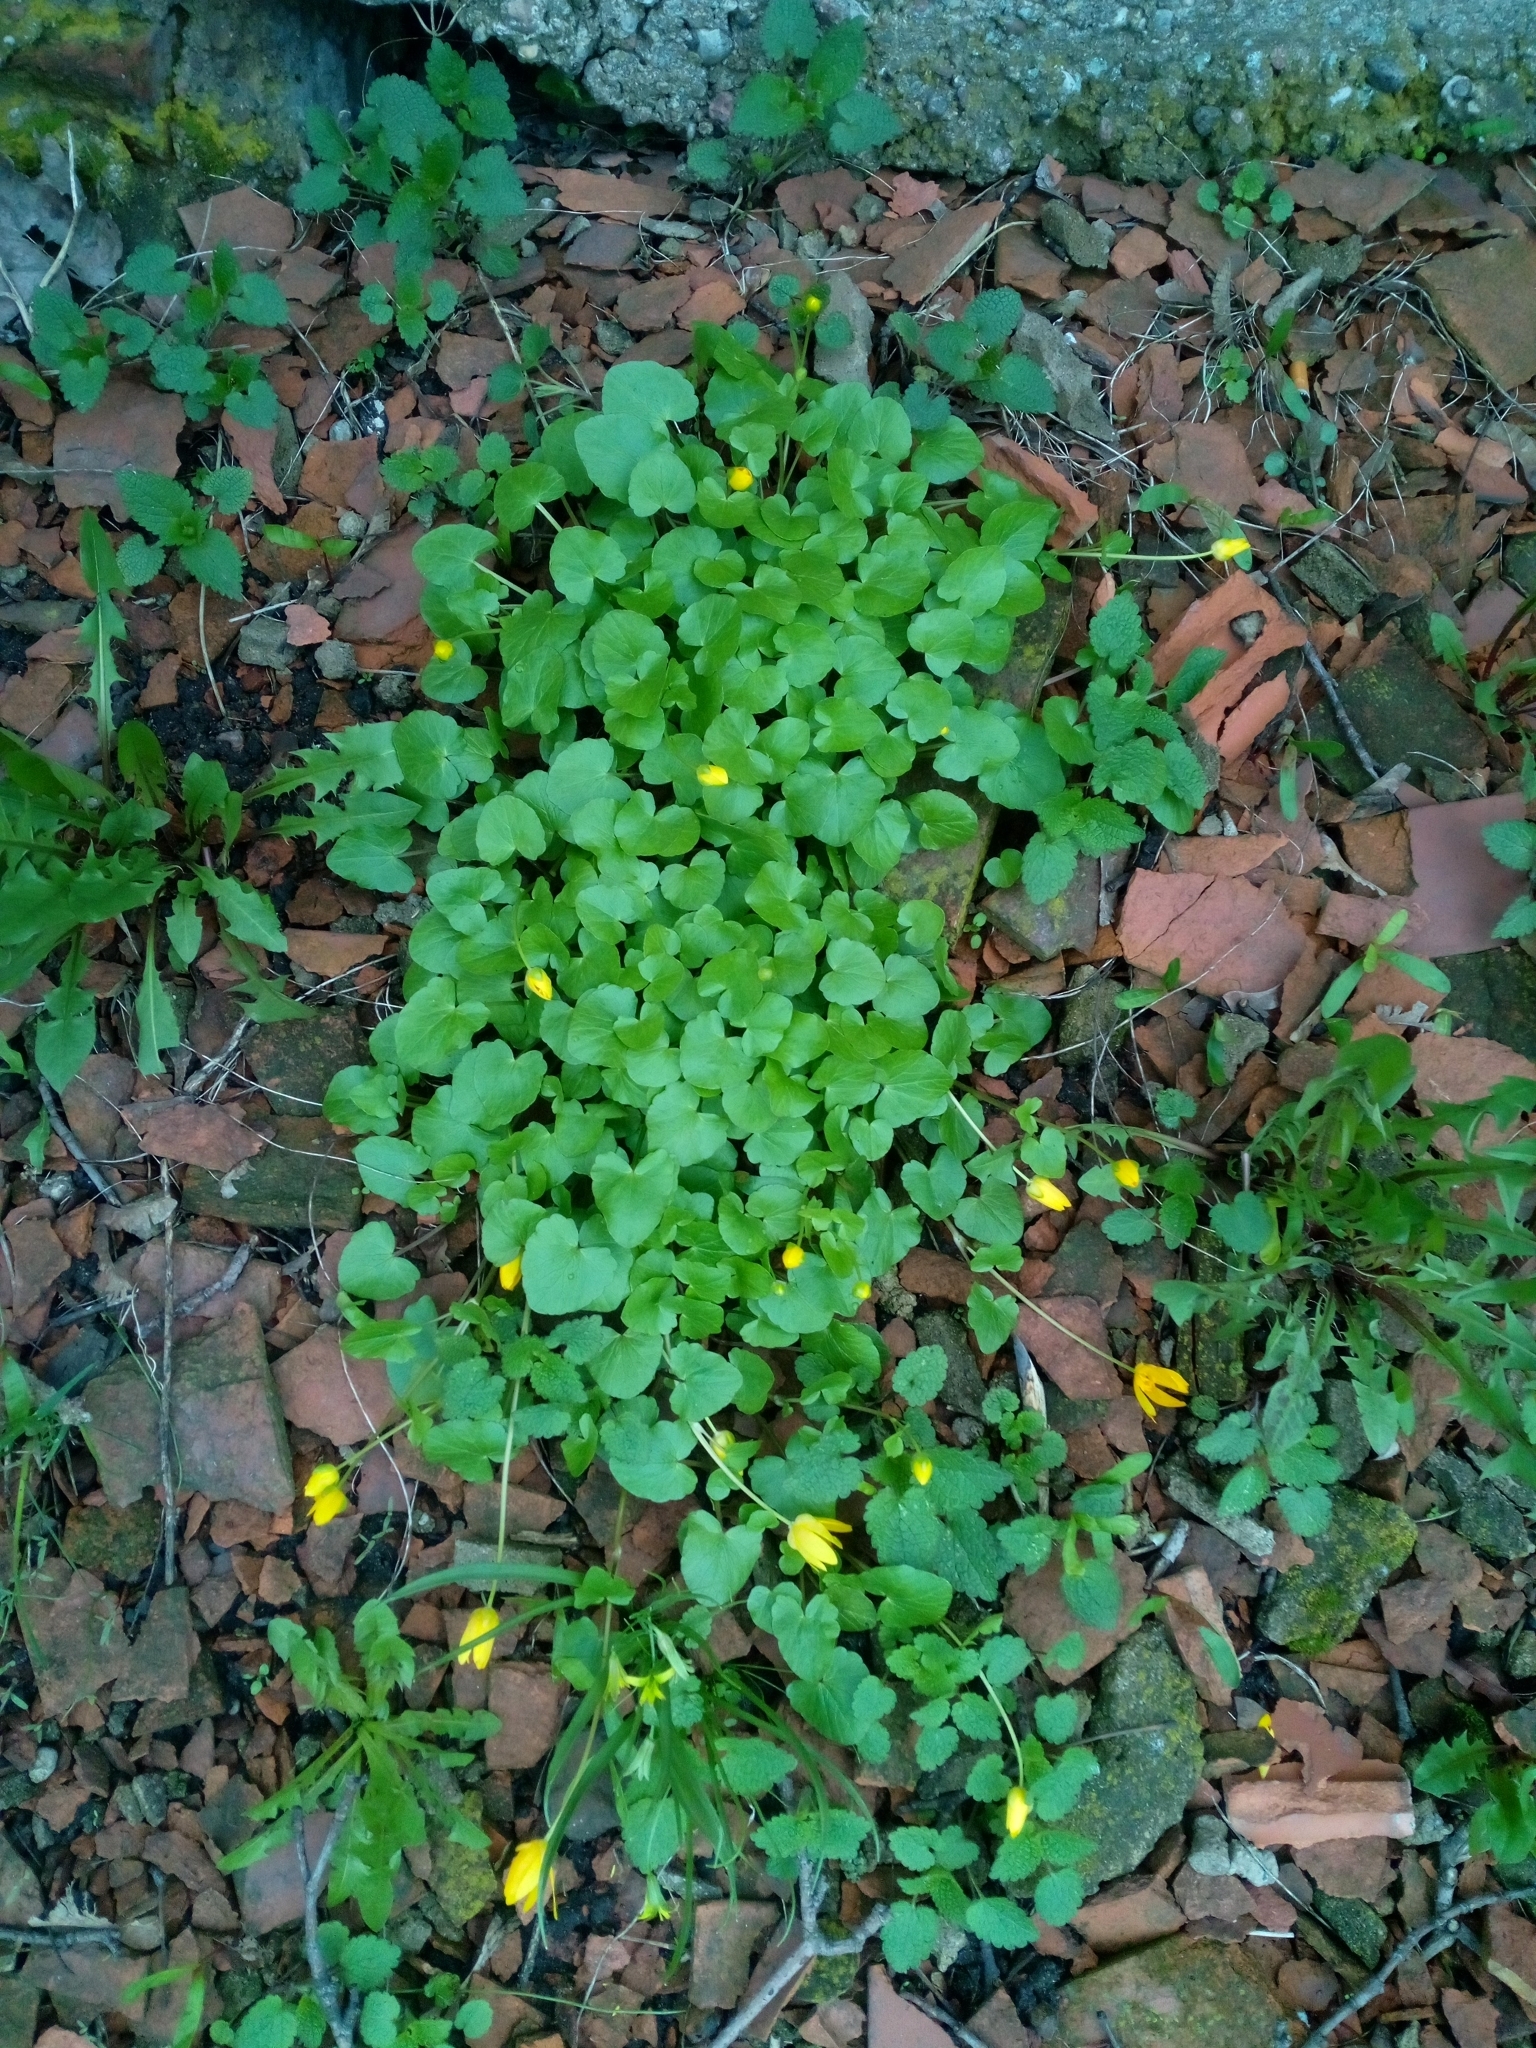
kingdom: Plantae
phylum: Tracheophyta
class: Magnoliopsida
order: Ranunculales
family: Ranunculaceae
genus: Ficaria
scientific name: Ficaria verna
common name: Lesser celandine
